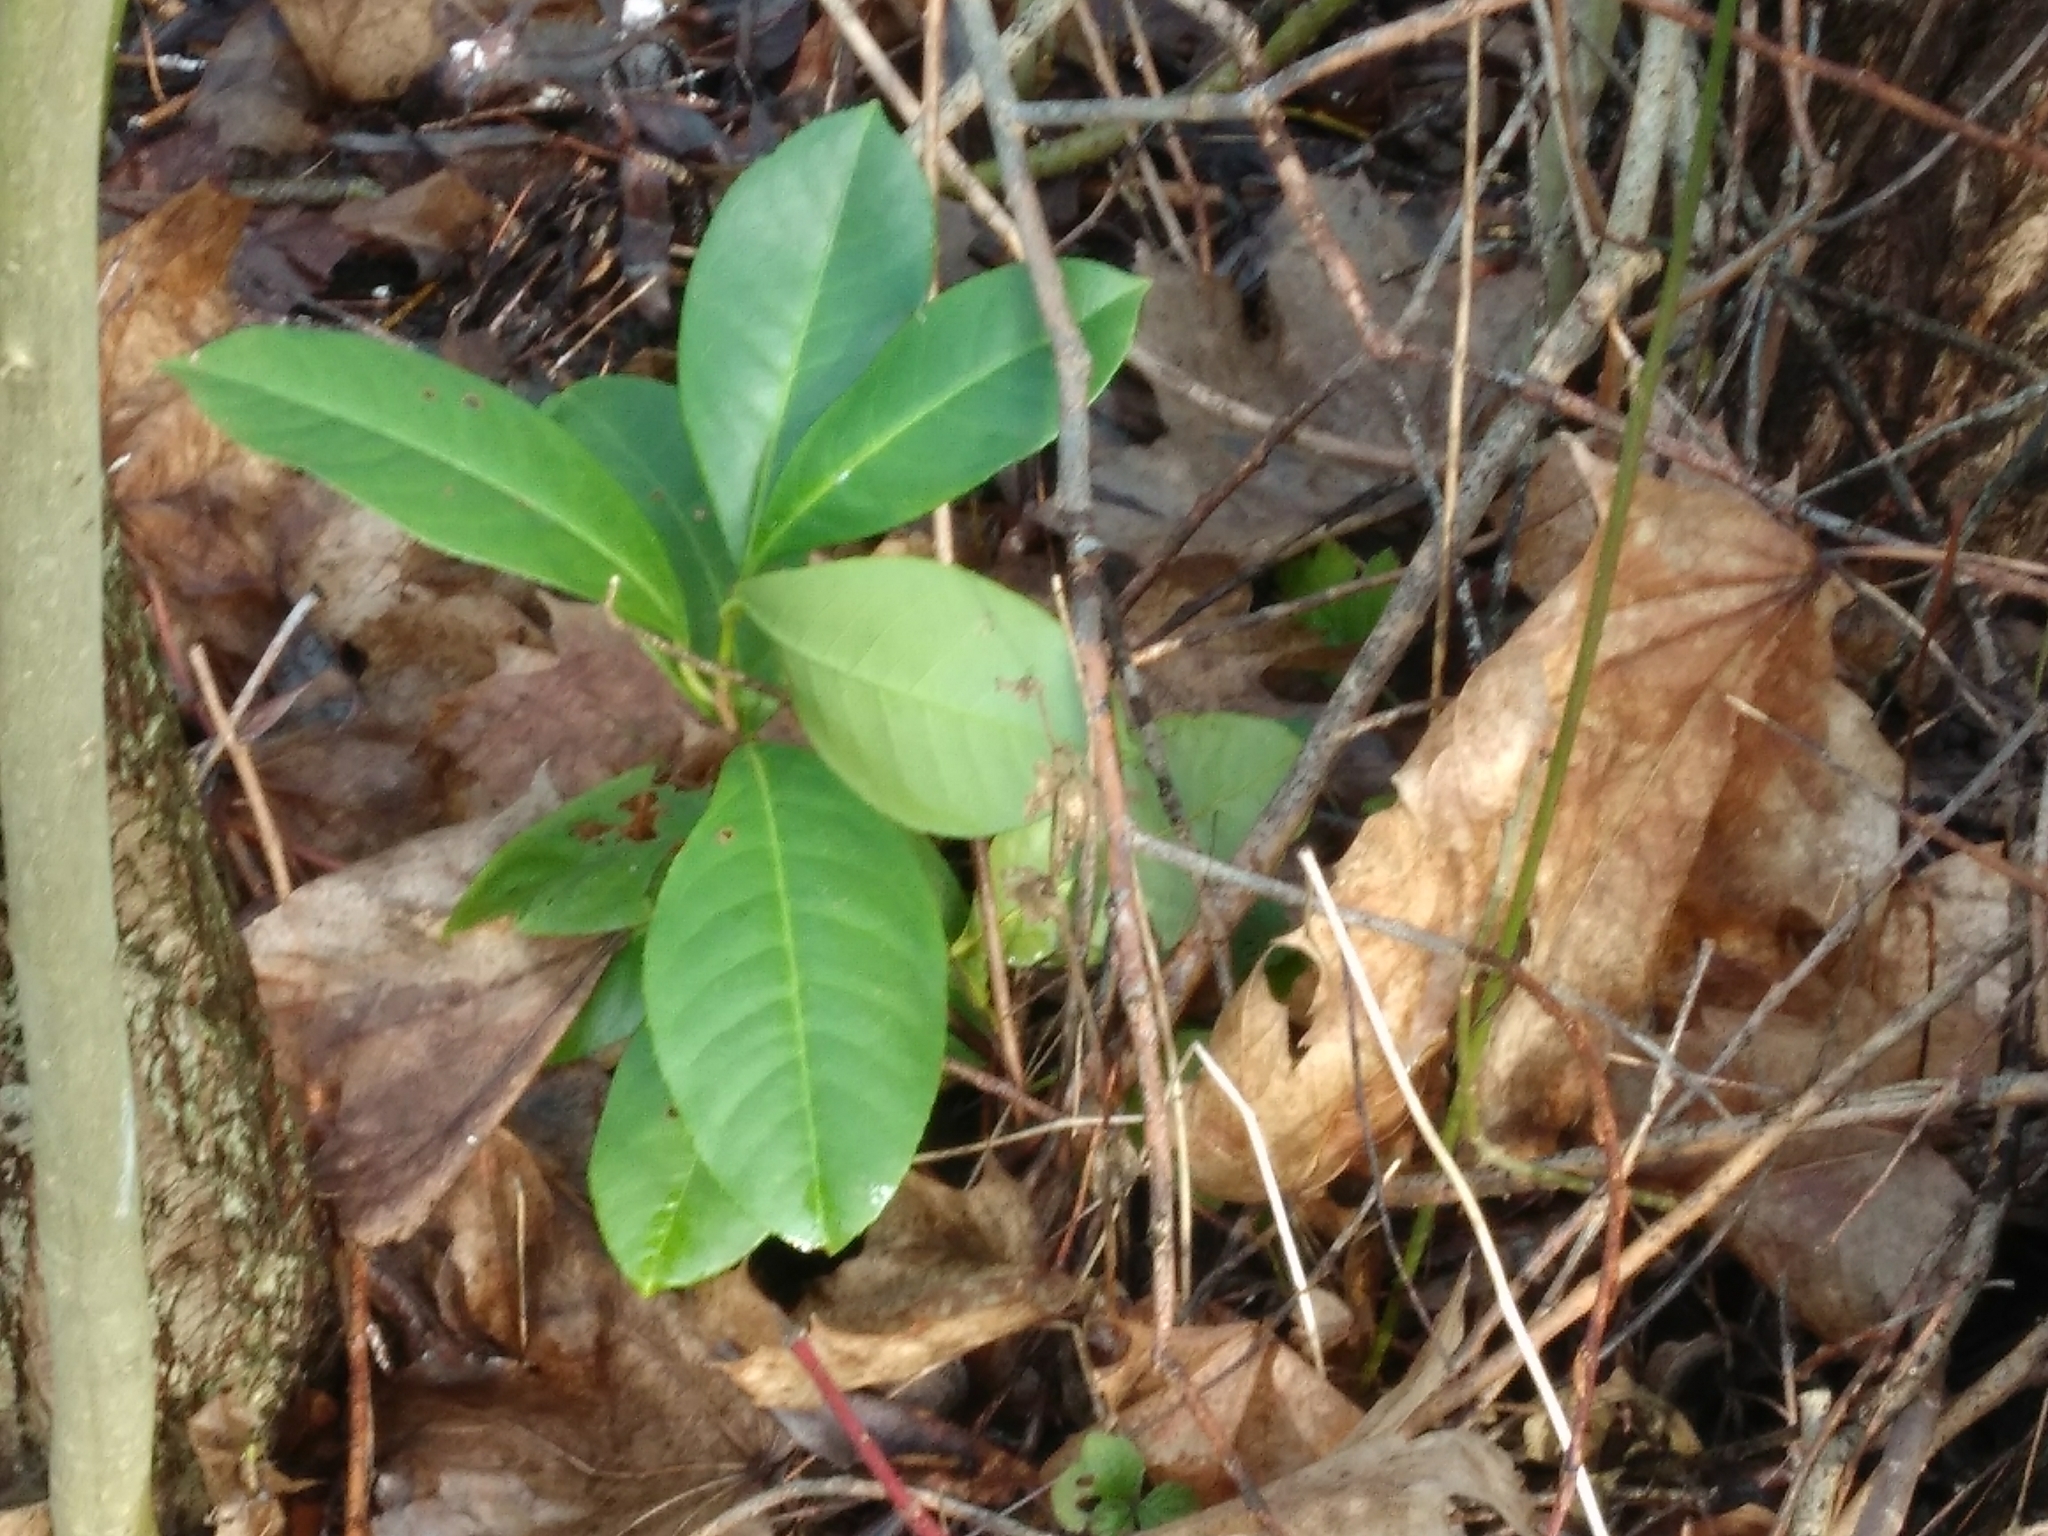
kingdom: Plantae
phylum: Tracheophyta
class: Magnoliopsida
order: Rosales
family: Rosaceae
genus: Prunus
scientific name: Prunus laurocerasus
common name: Cherry laurel
